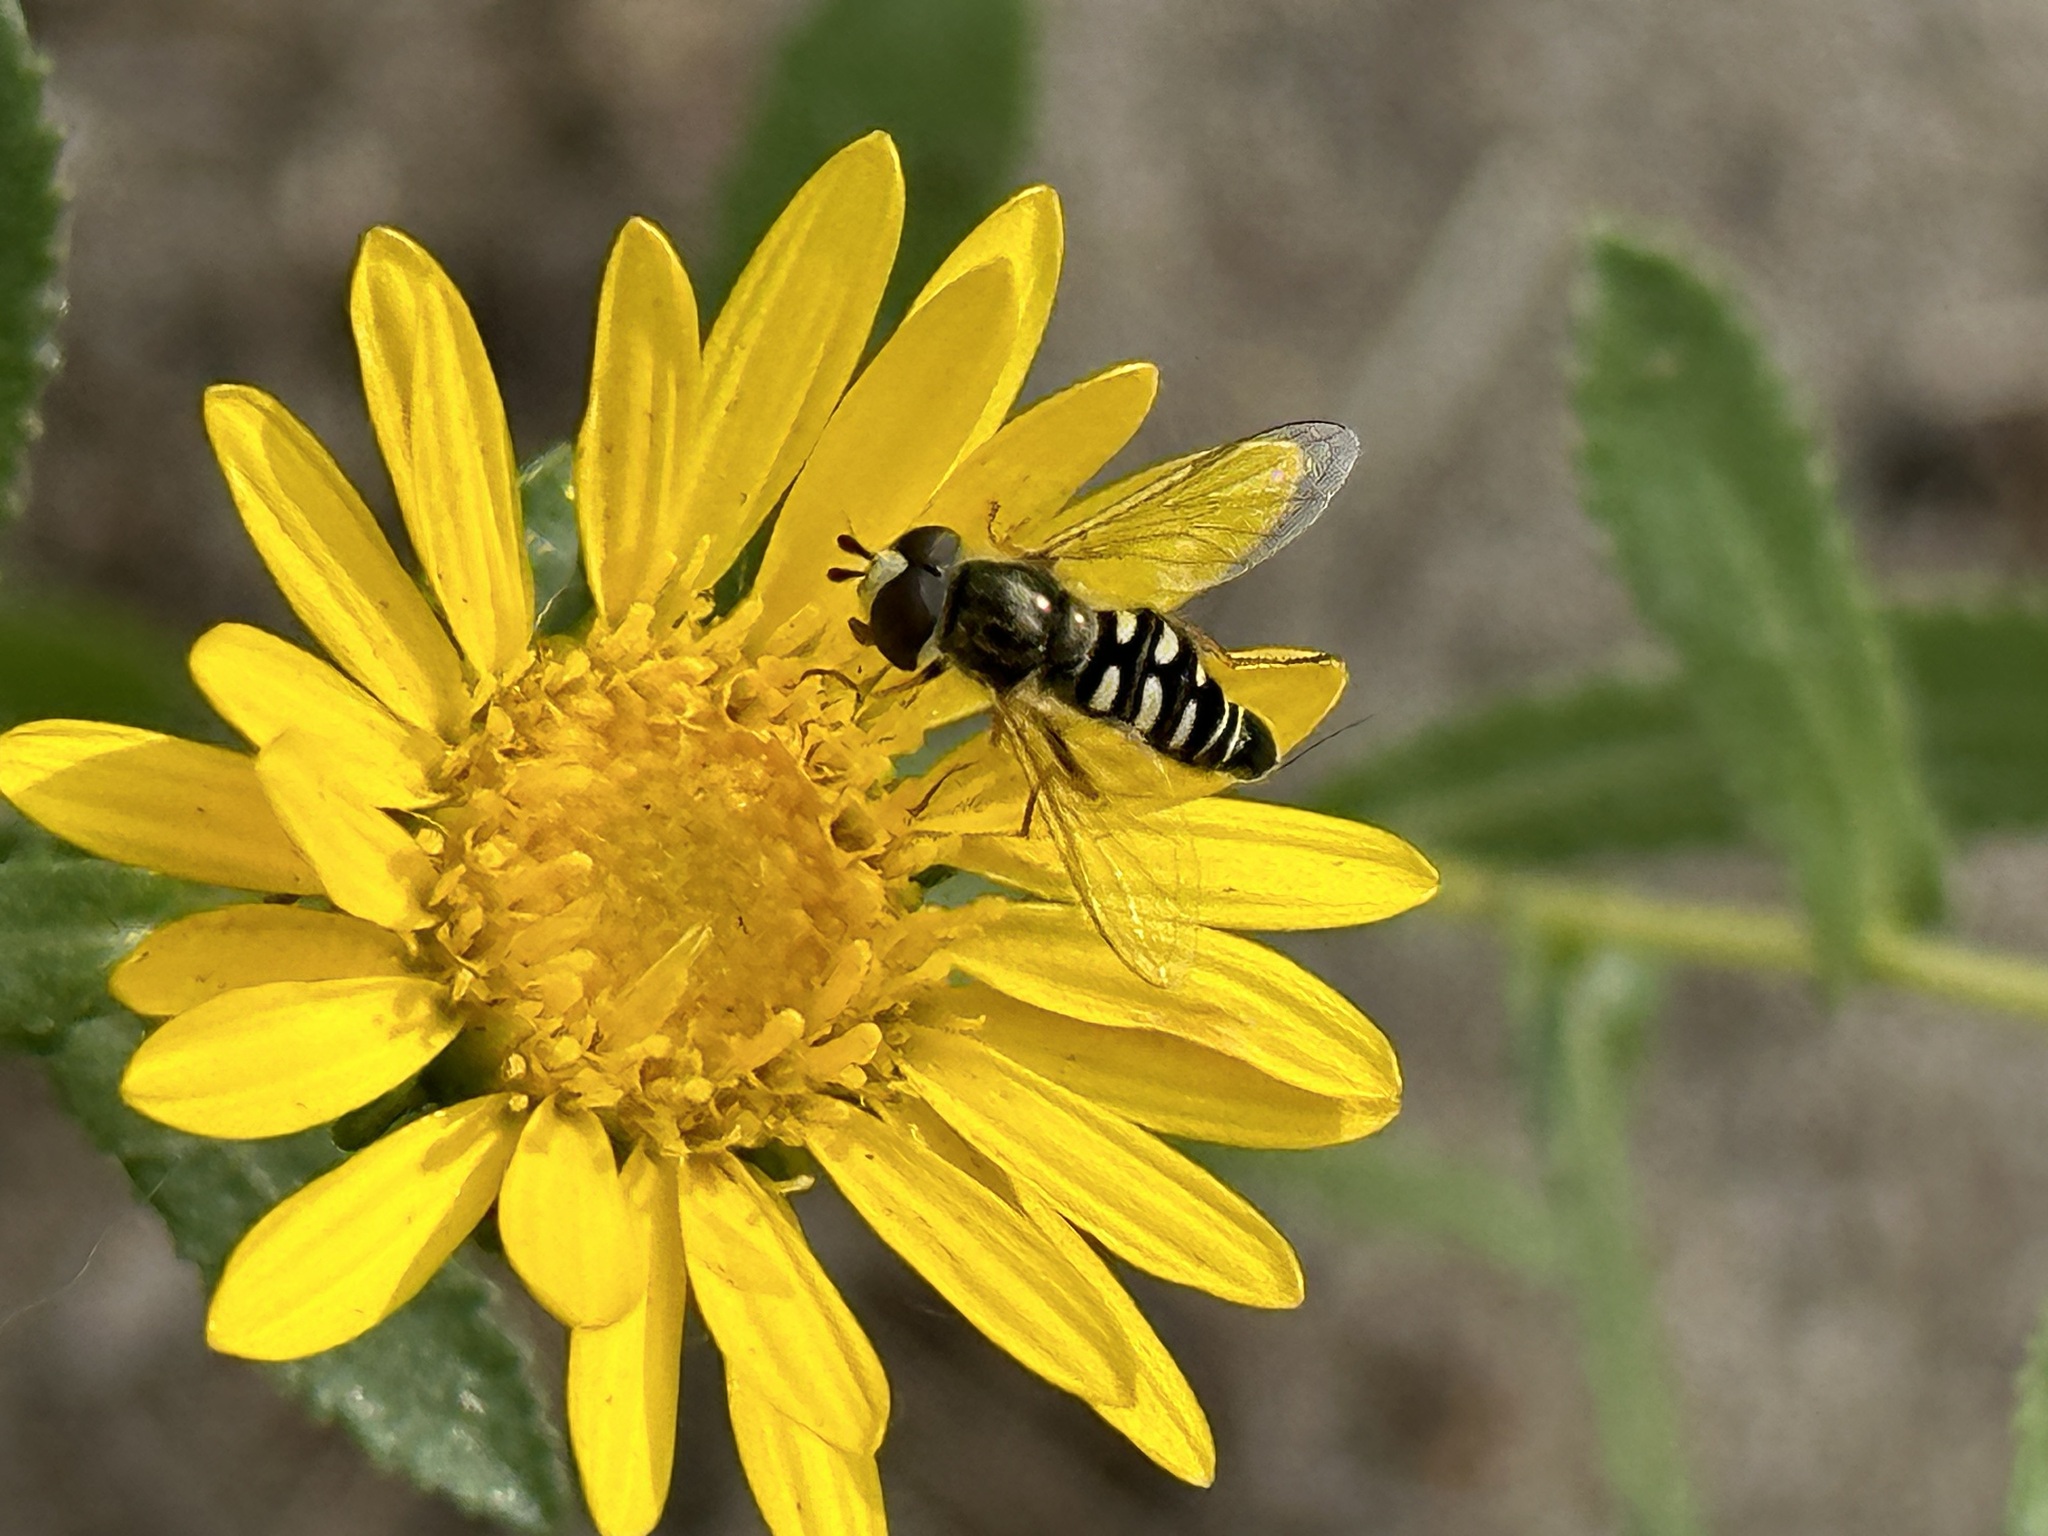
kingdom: Animalia
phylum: Arthropoda
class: Insecta
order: Diptera
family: Syrphidae
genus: Eupeodes
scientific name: Eupeodes volucris
